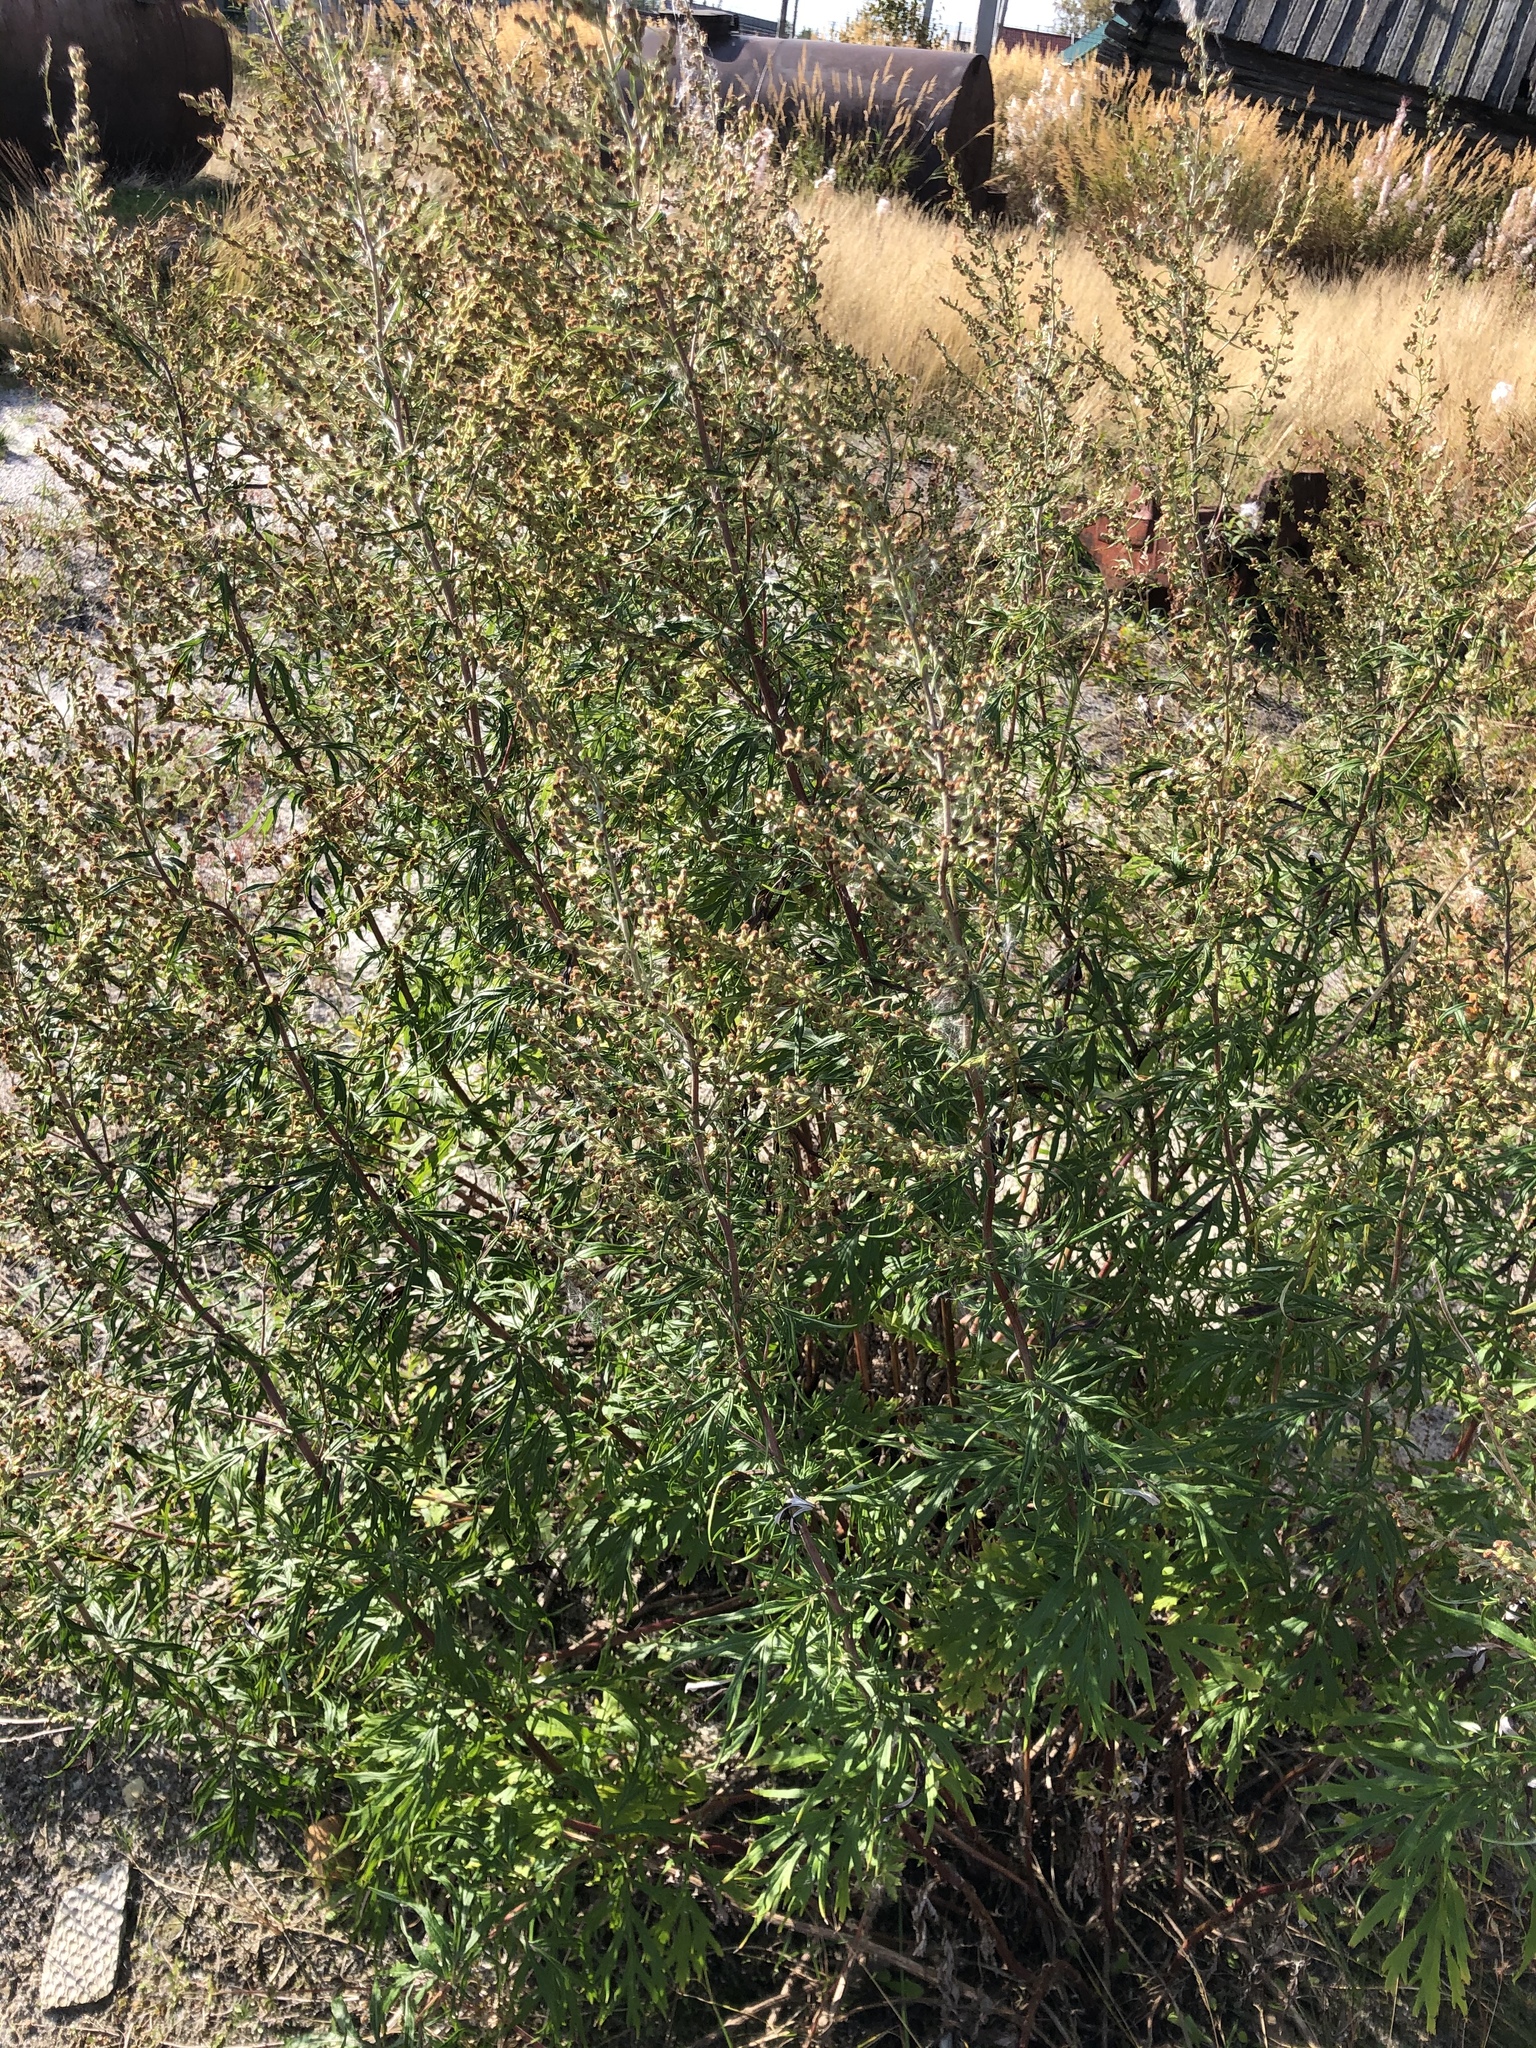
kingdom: Plantae
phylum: Tracheophyta
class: Magnoliopsida
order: Asterales
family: Asteraceae
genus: Artemisia
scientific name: Artemisia vulgaris
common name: Mugwort
